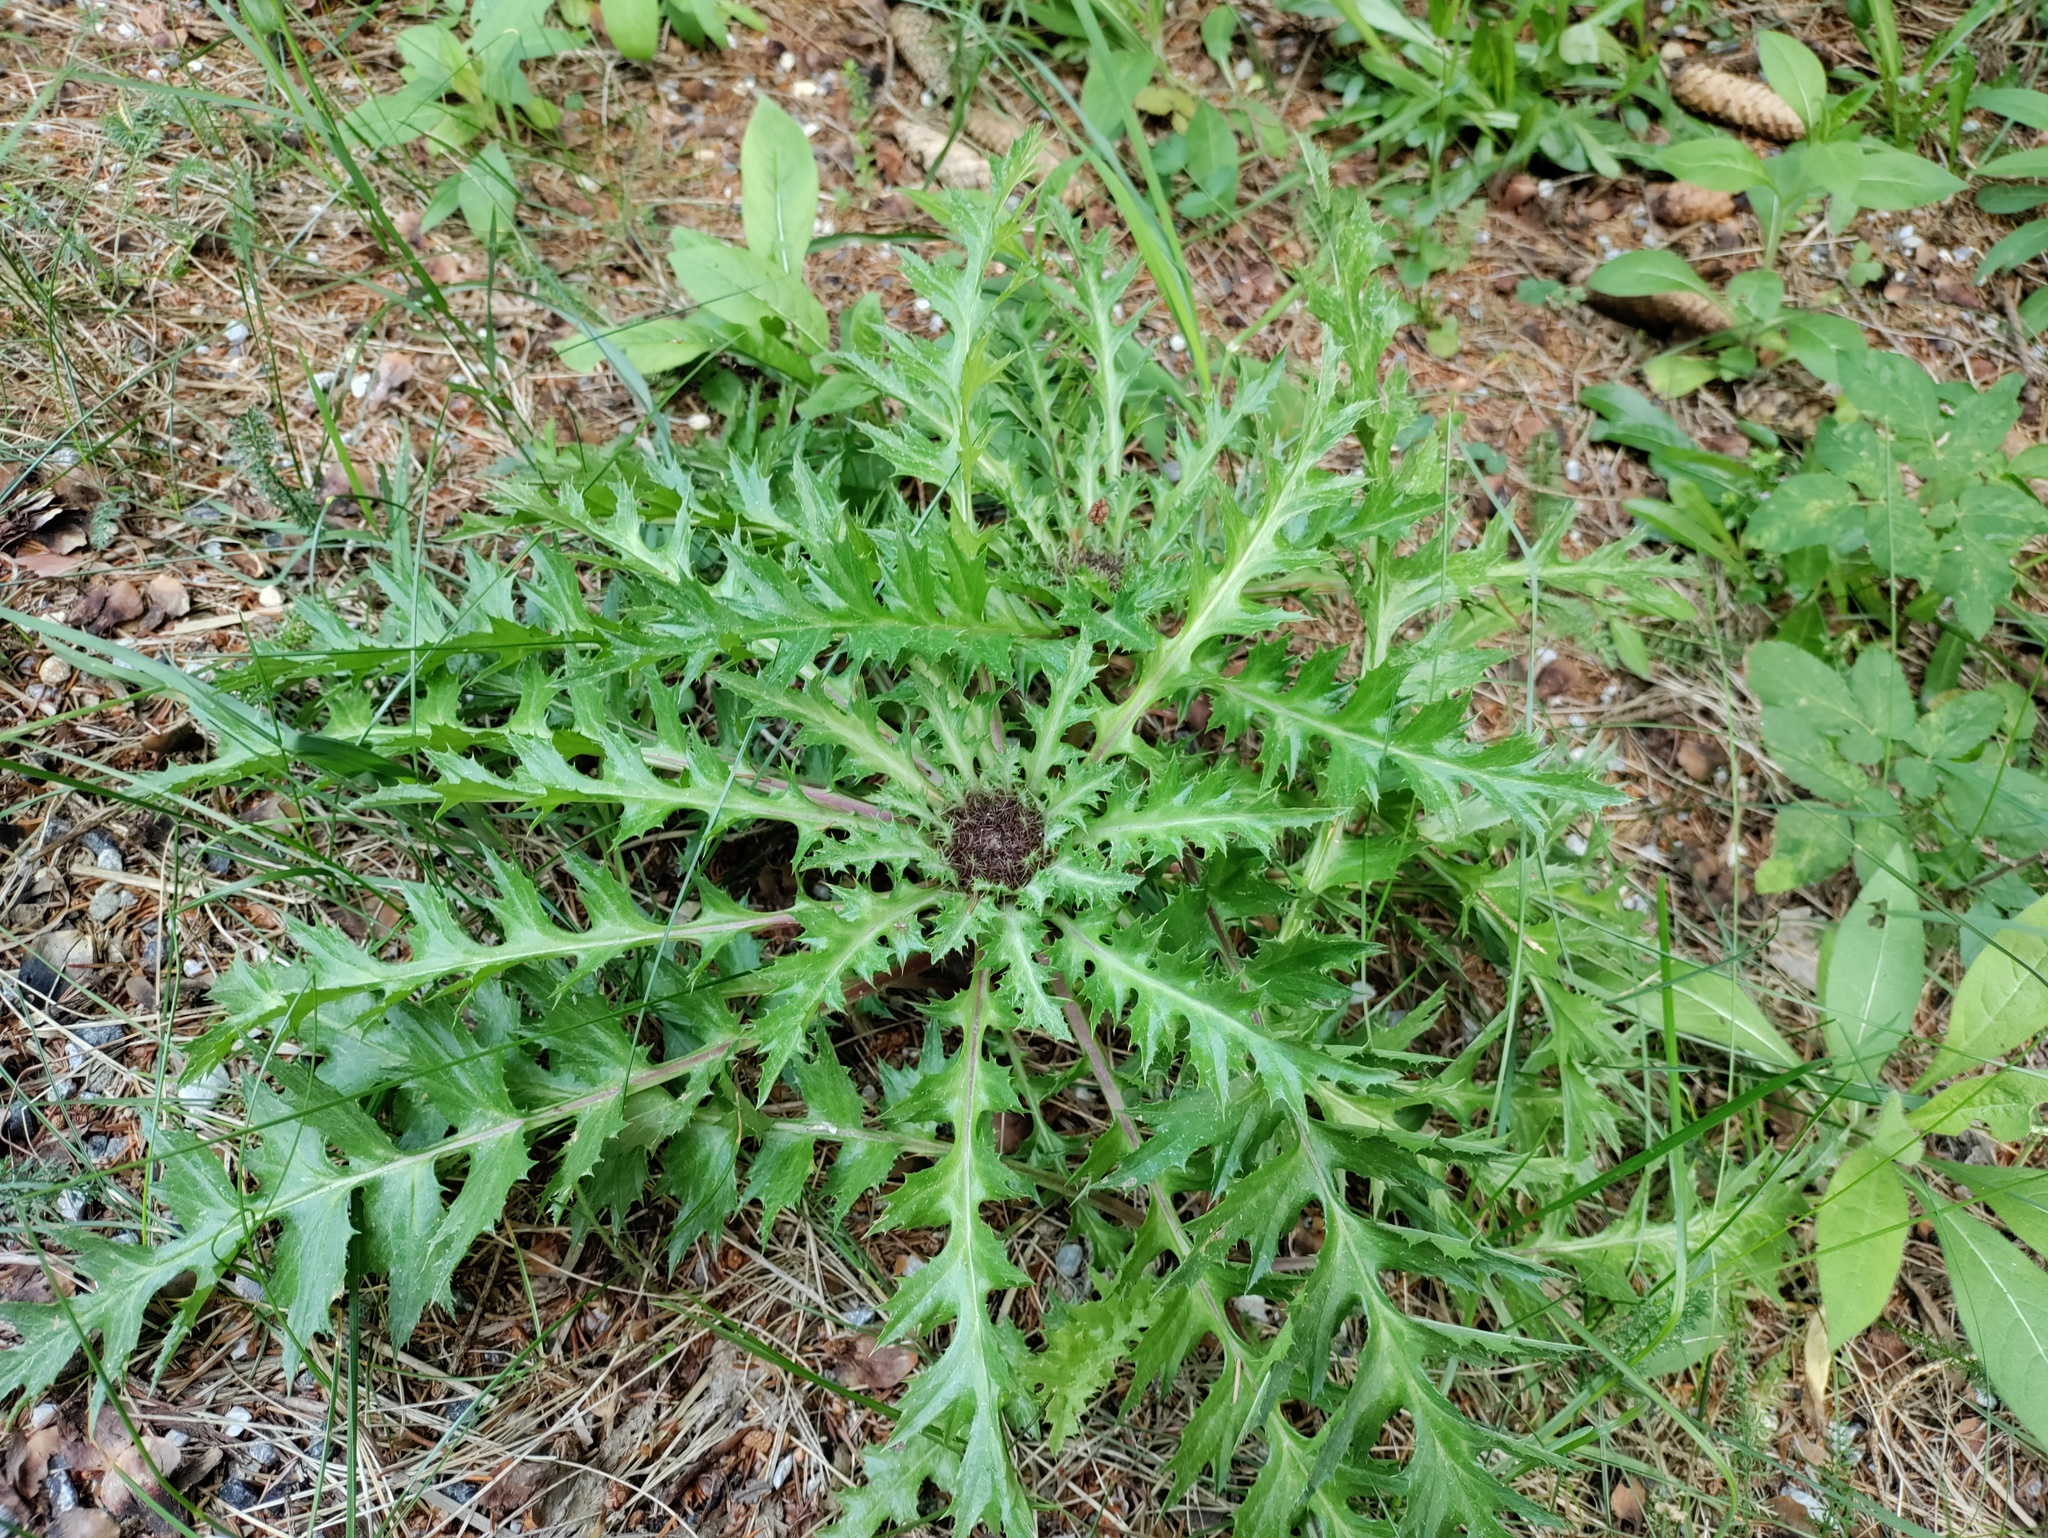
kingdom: Plantae
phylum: Tracheophyta
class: Magnoliopsida
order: Asterales
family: Asteraceae
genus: Carlina
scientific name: Carlina acaulis
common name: Stemless carline thistle
